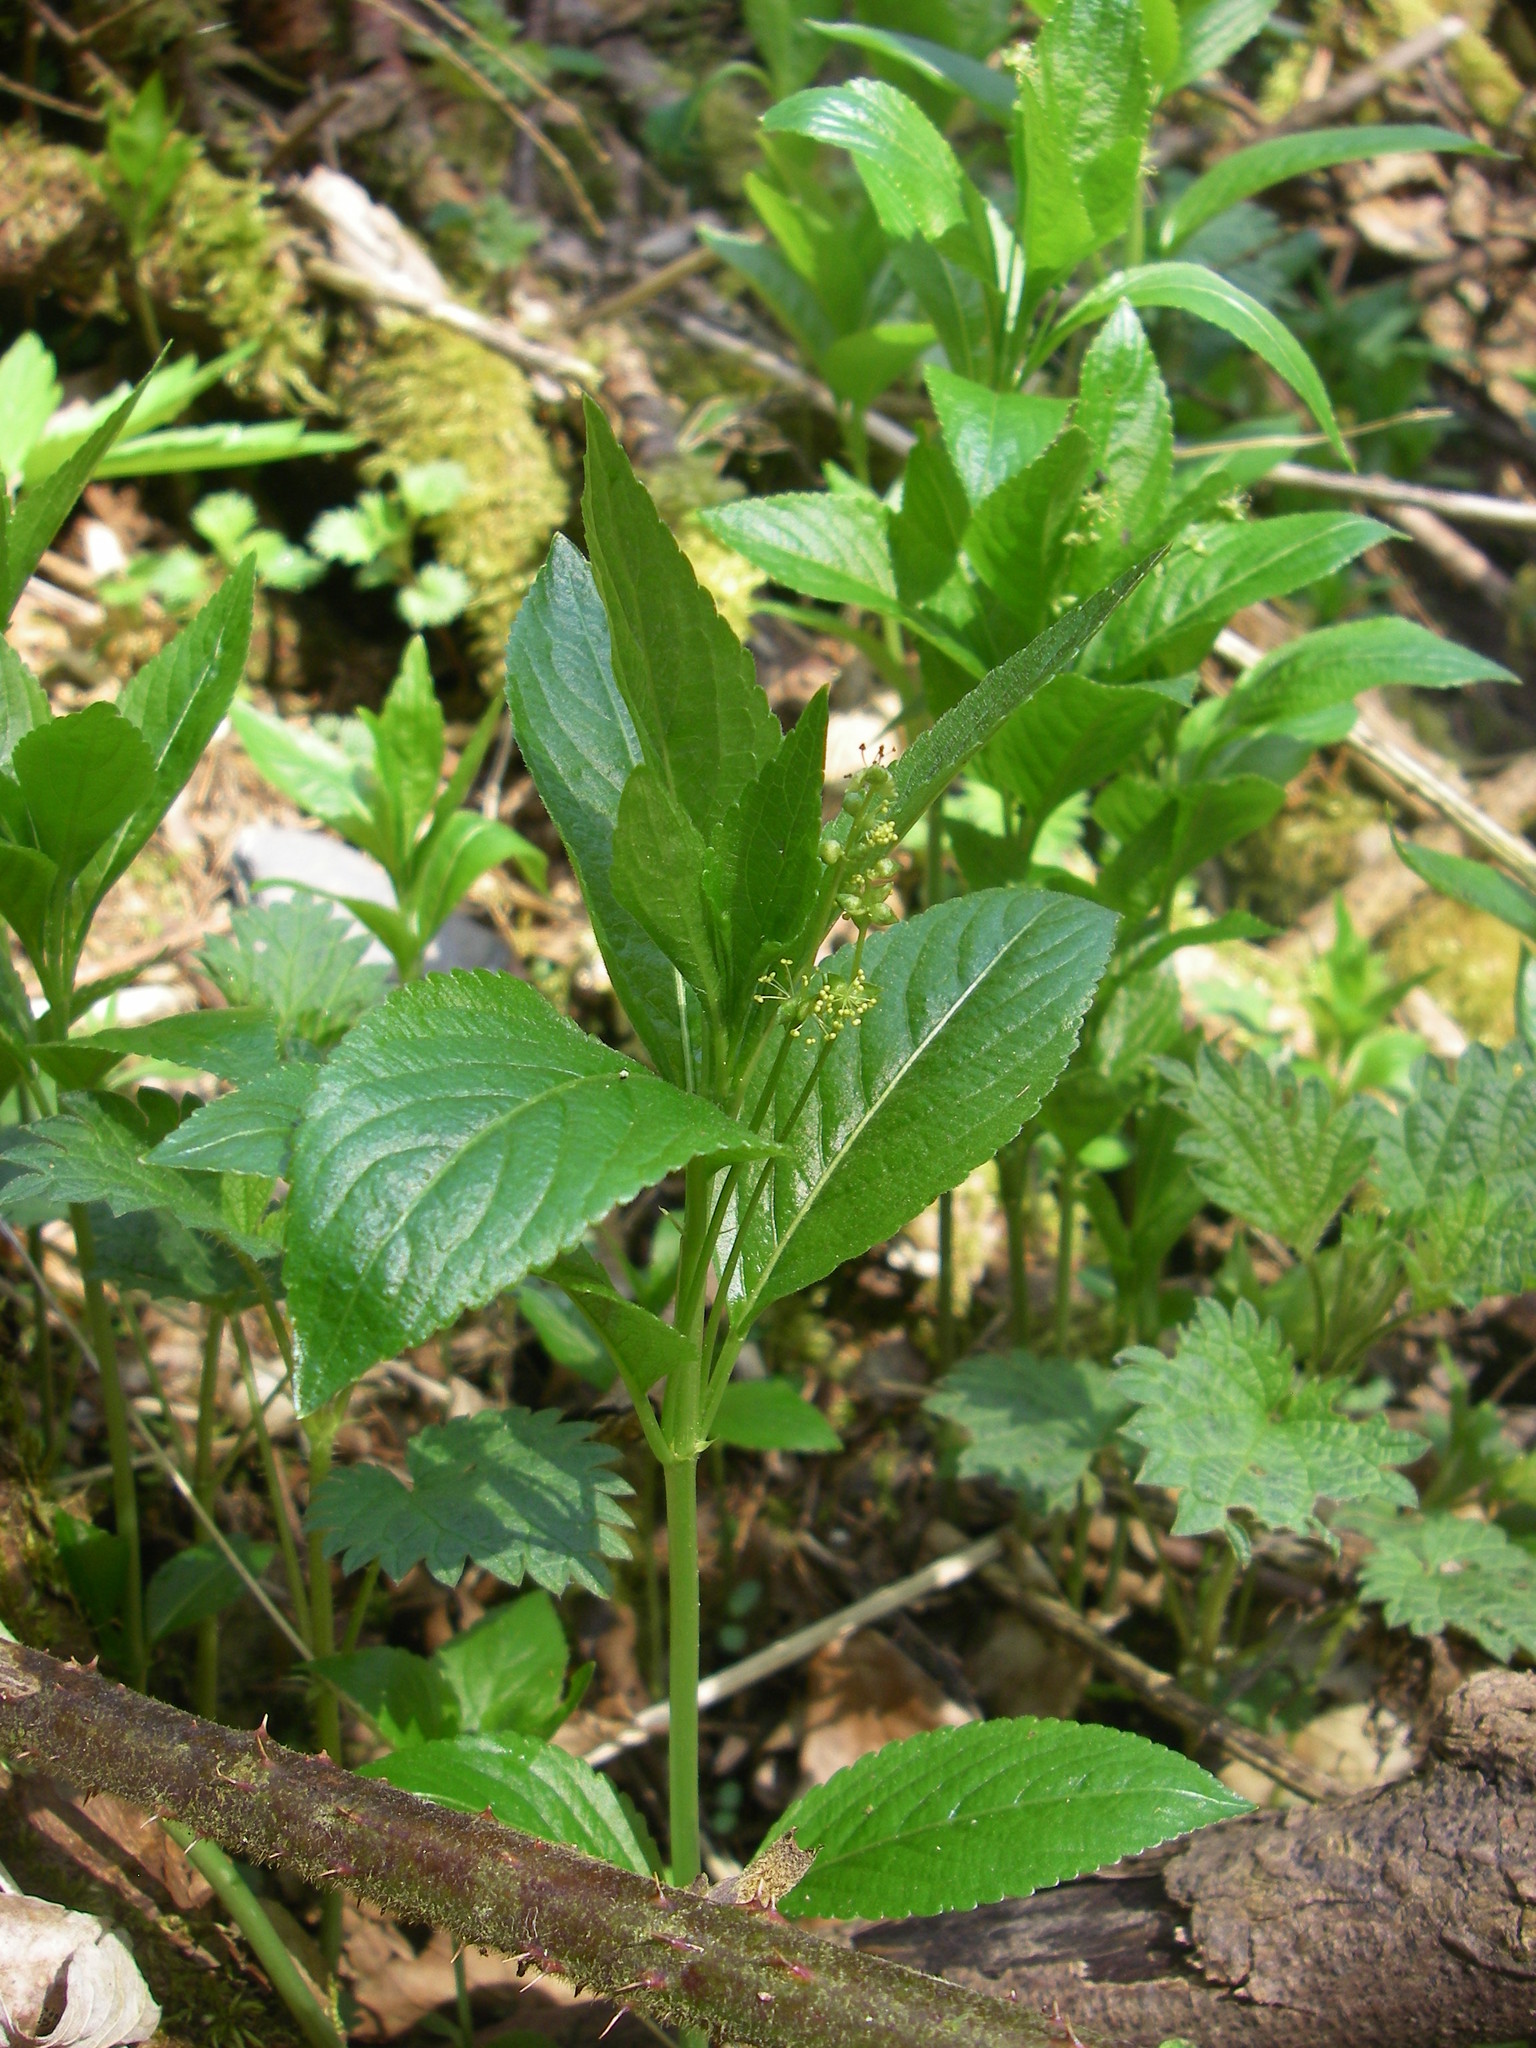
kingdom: Plantae
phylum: Tracheophyta
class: Magnoliopsida
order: Malpighiales
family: Euphorbiaceae
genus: Mercurialis
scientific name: Mercurialis perennis
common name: Dog mercury
